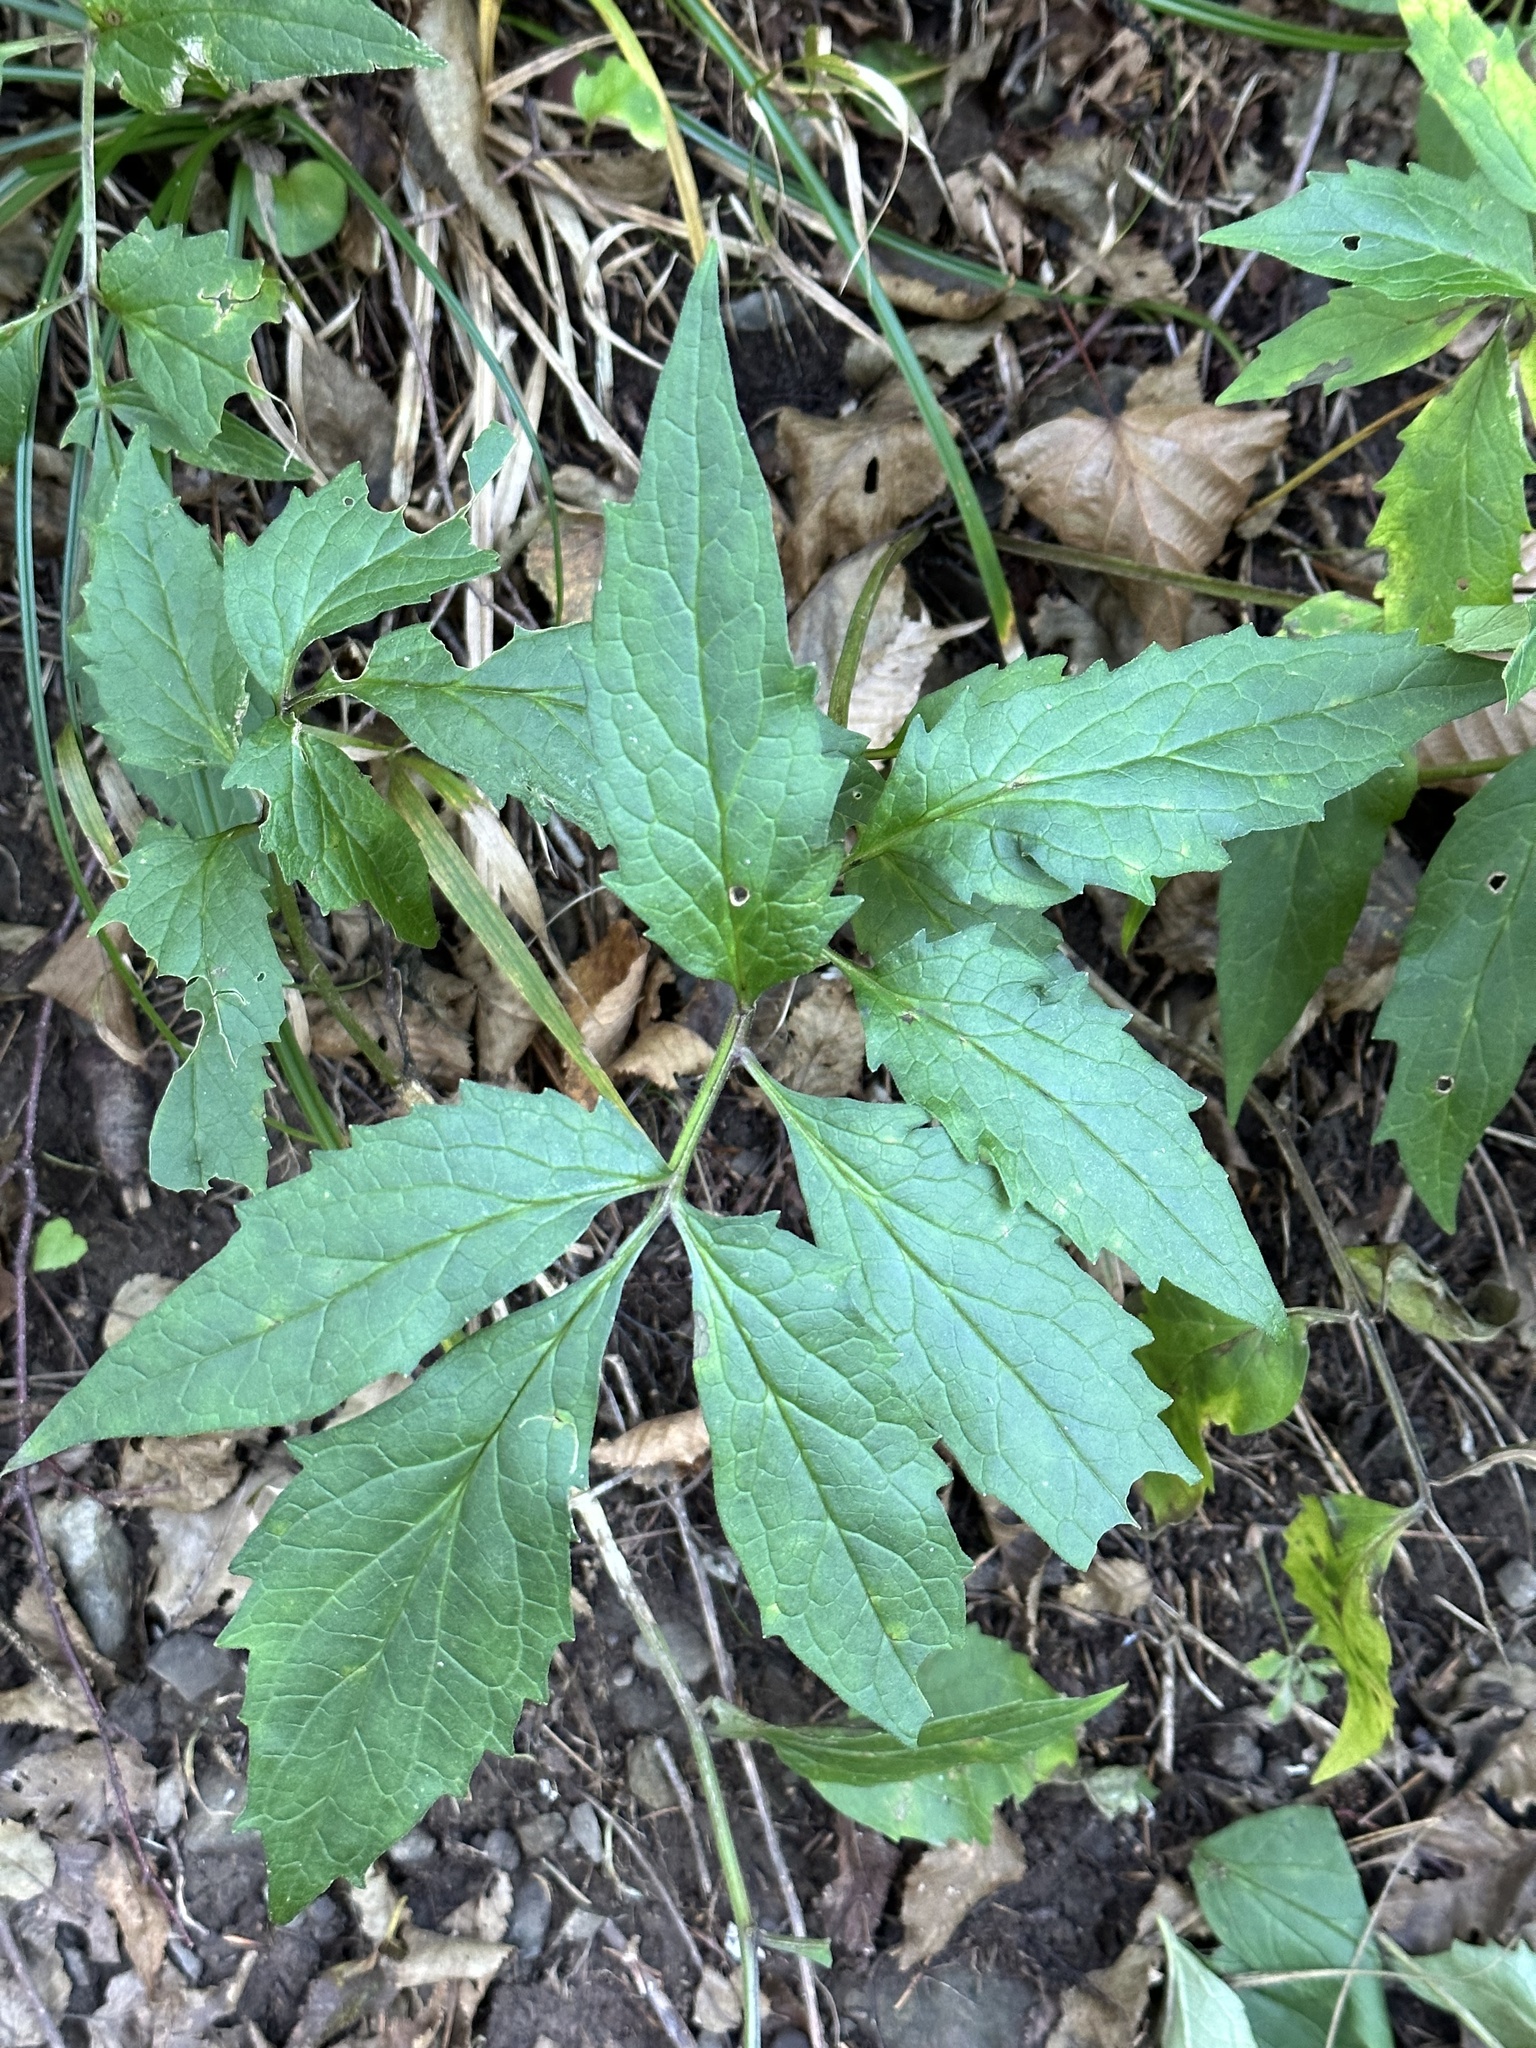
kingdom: Plantae
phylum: Tracheophyta
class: Magnoliopsida
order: Dipsacales
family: Caprifoliaceae
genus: Valeriana
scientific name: Valeriana fauriei
